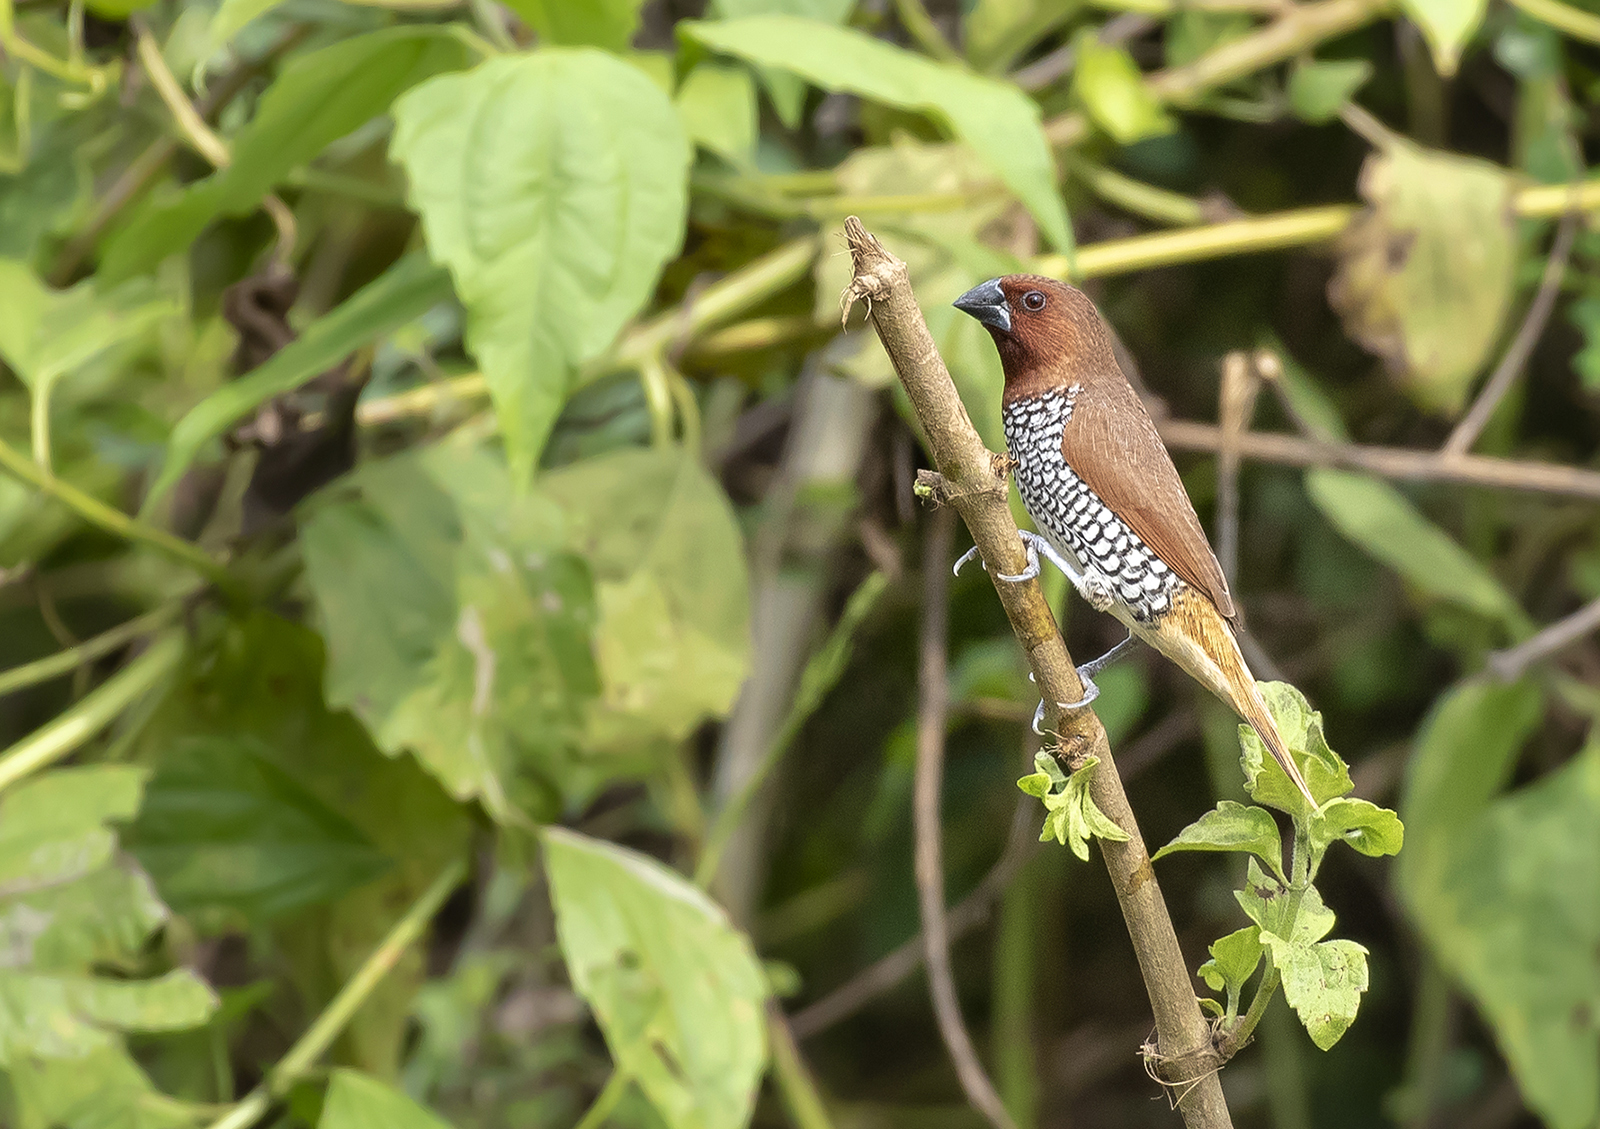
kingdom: Animalia
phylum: Chordata
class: Aves
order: Passeriformes
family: Estrildidae
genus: Lonchura
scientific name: Lonchura punctulata
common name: Scaly-breasted munia
